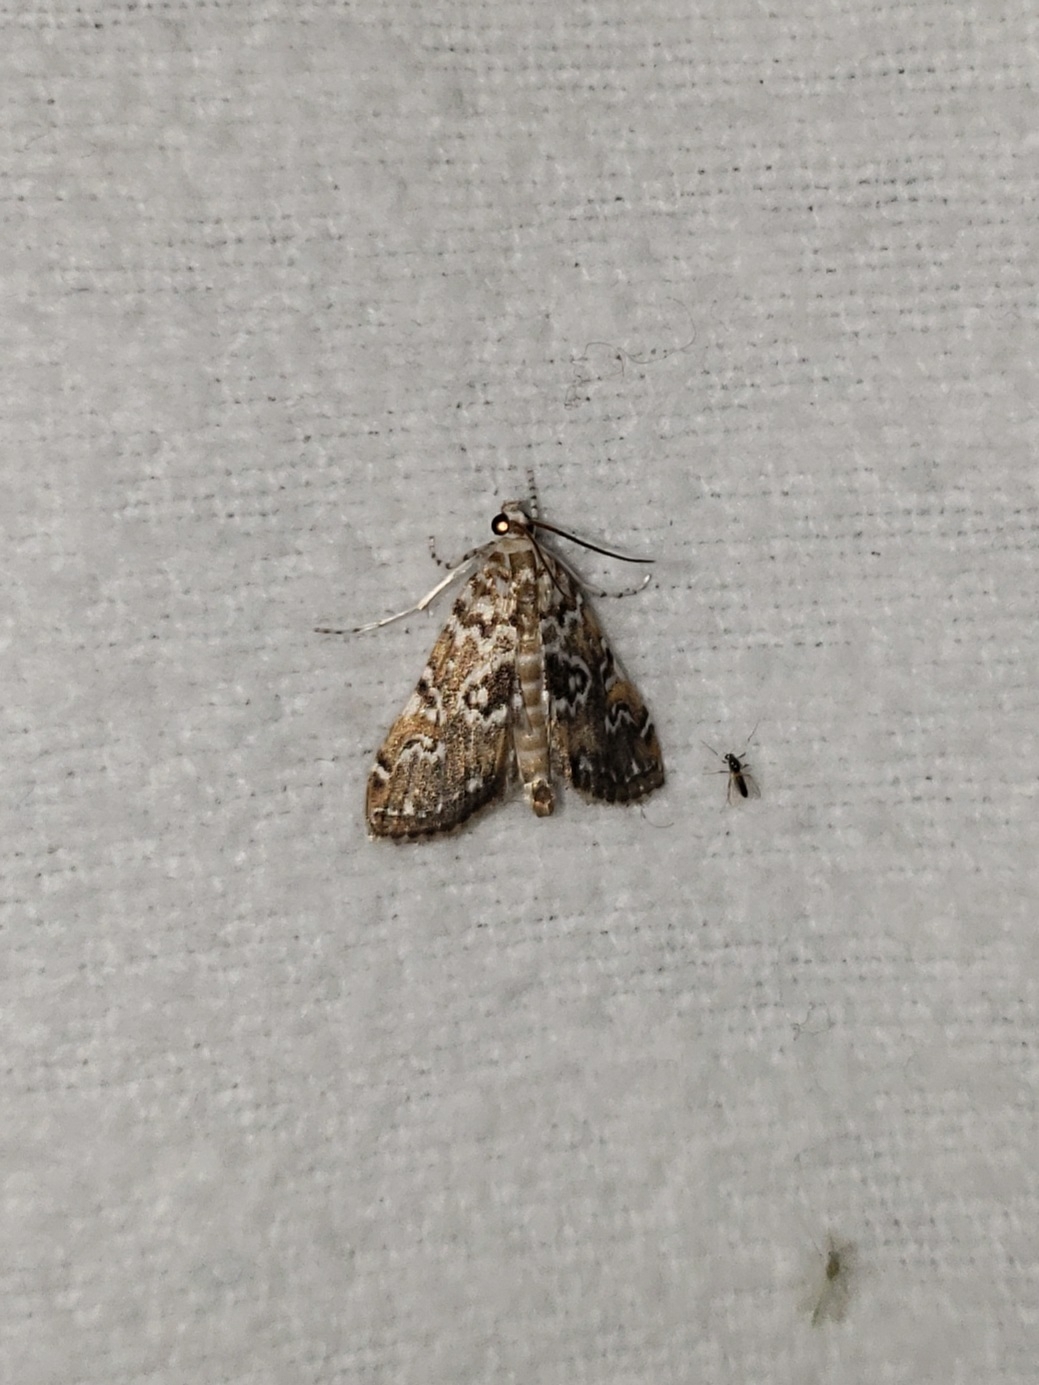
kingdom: Animalia
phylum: Arthropoda
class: Insecta
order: Lepidoptera
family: Crambidae
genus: Elophila
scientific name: Elophila obliteralis
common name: Waterlily leafcutter moth
